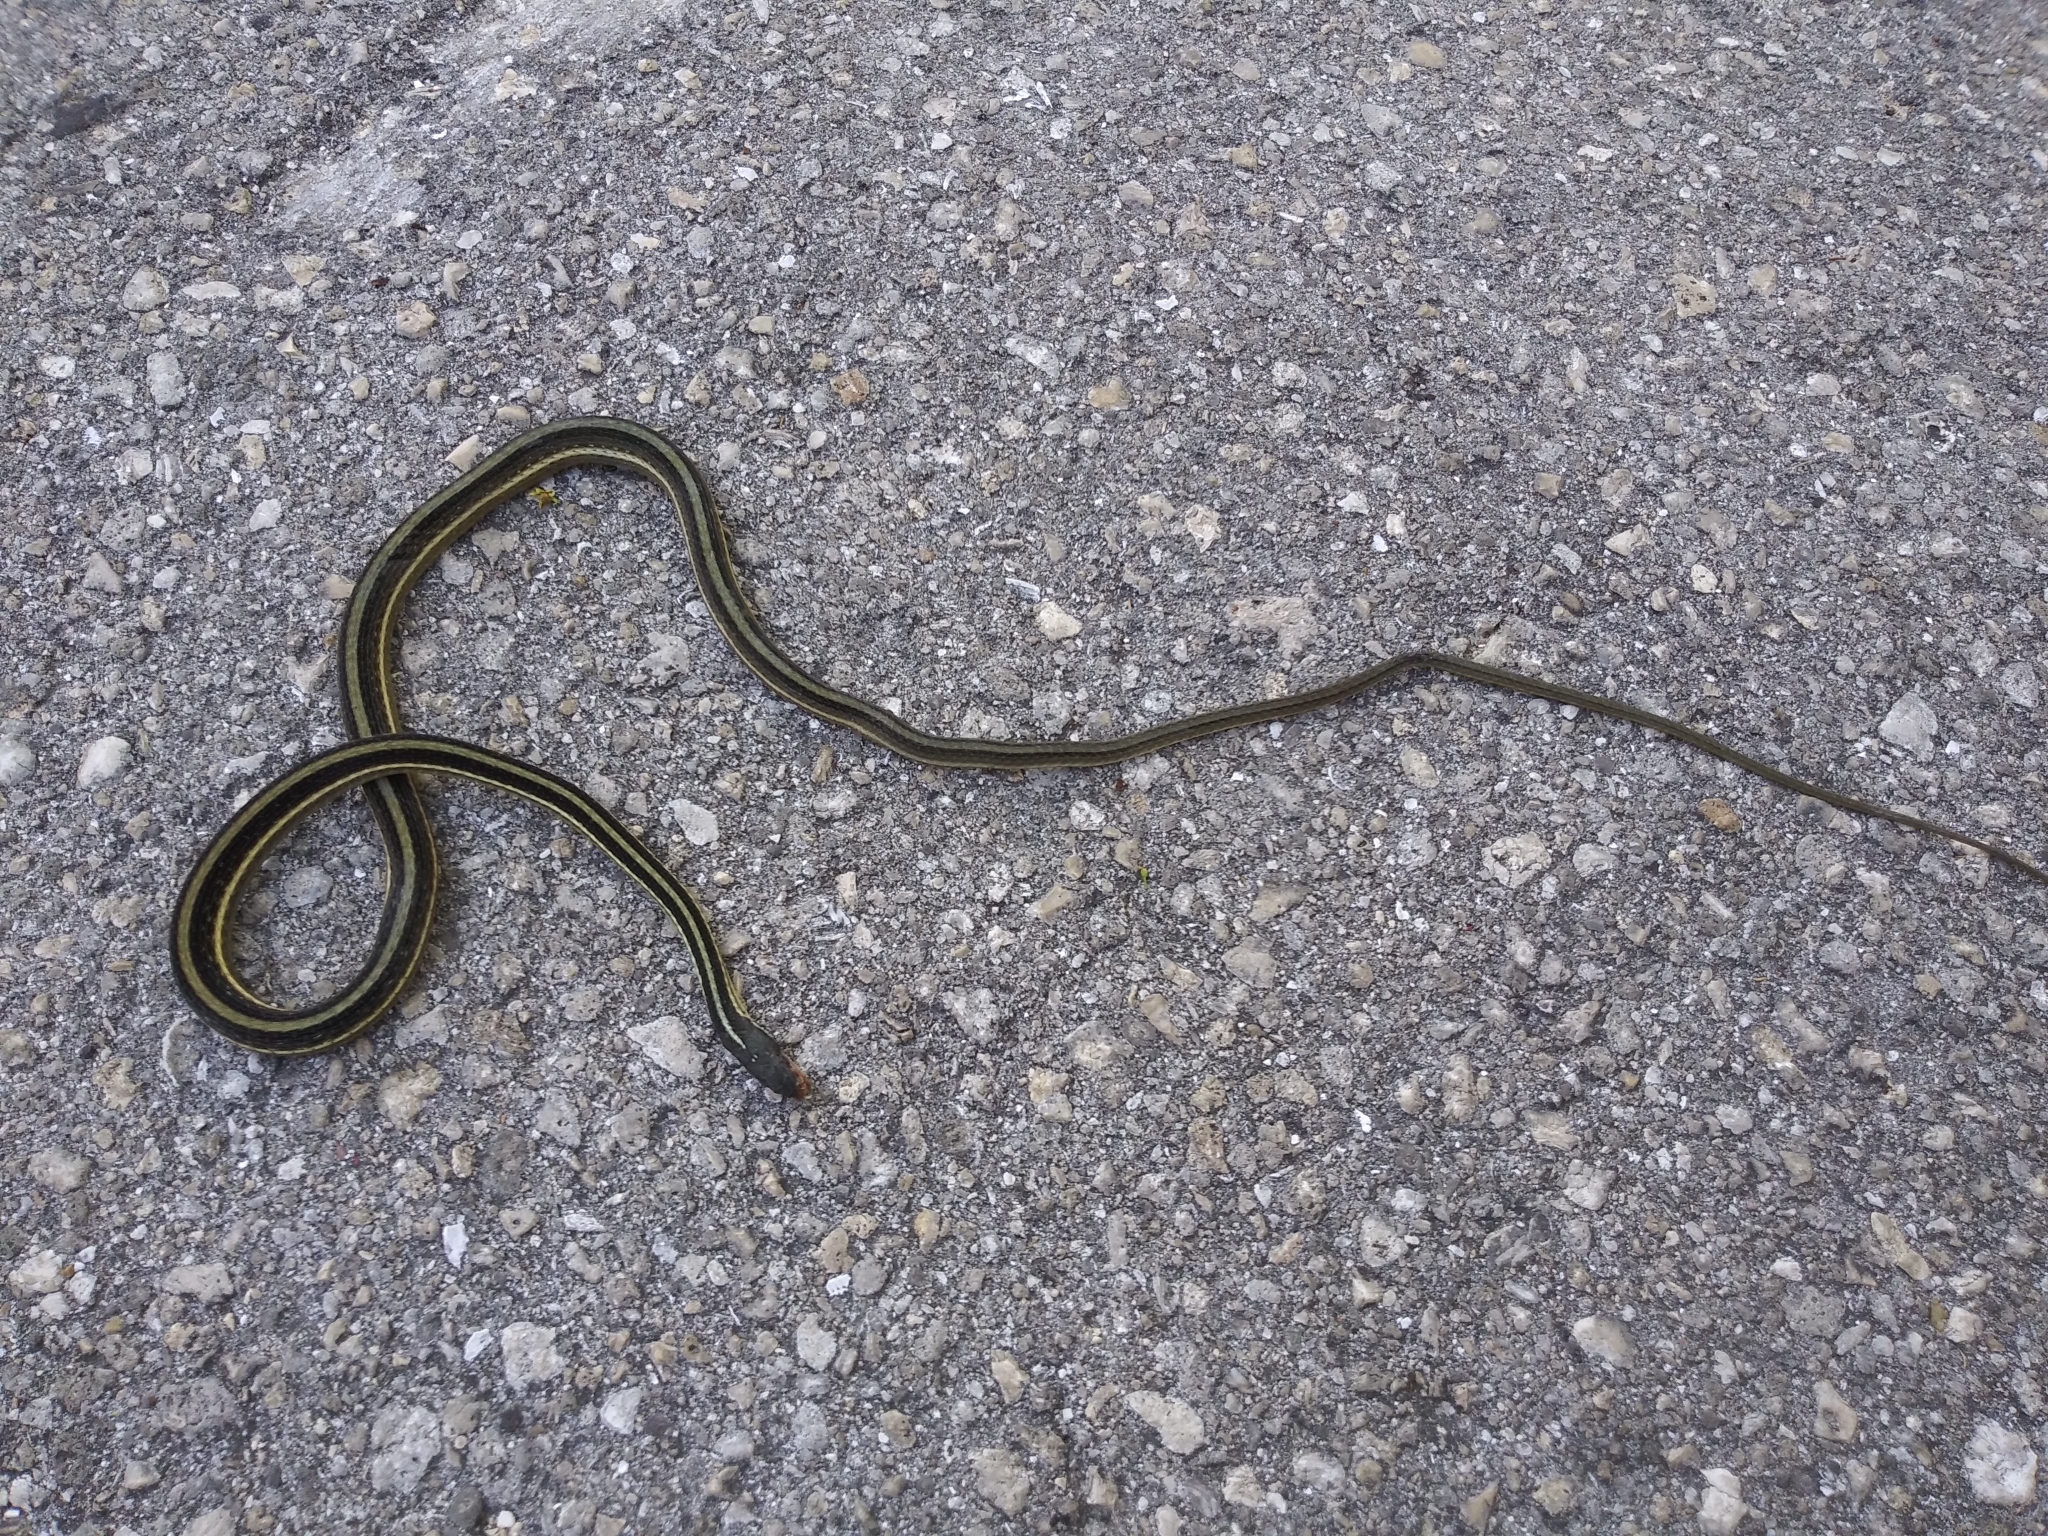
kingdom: Animalia
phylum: Chordata
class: Squamata
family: Colubridae
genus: Thamnophis
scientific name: Thamnophis saurita
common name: Eastern ribbonsnake
